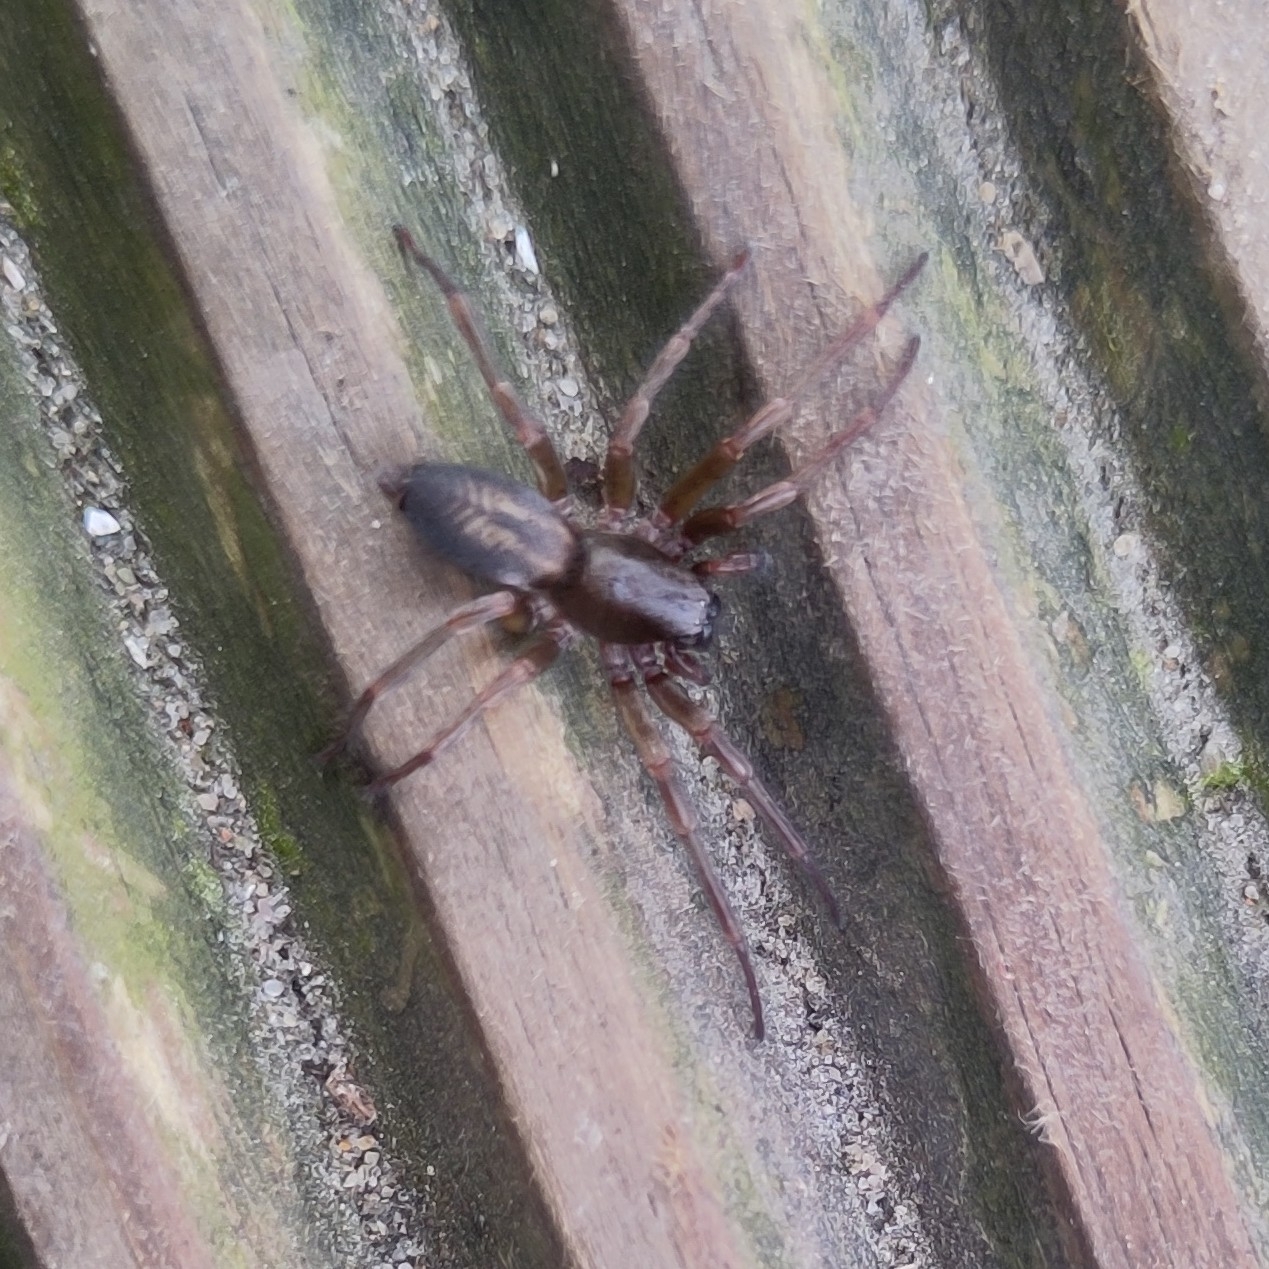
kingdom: Animalia
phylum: Arthropoda
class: Arachnida
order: Araneae
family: Clubionidae
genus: Clubiona
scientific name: Clubiona corticalis
